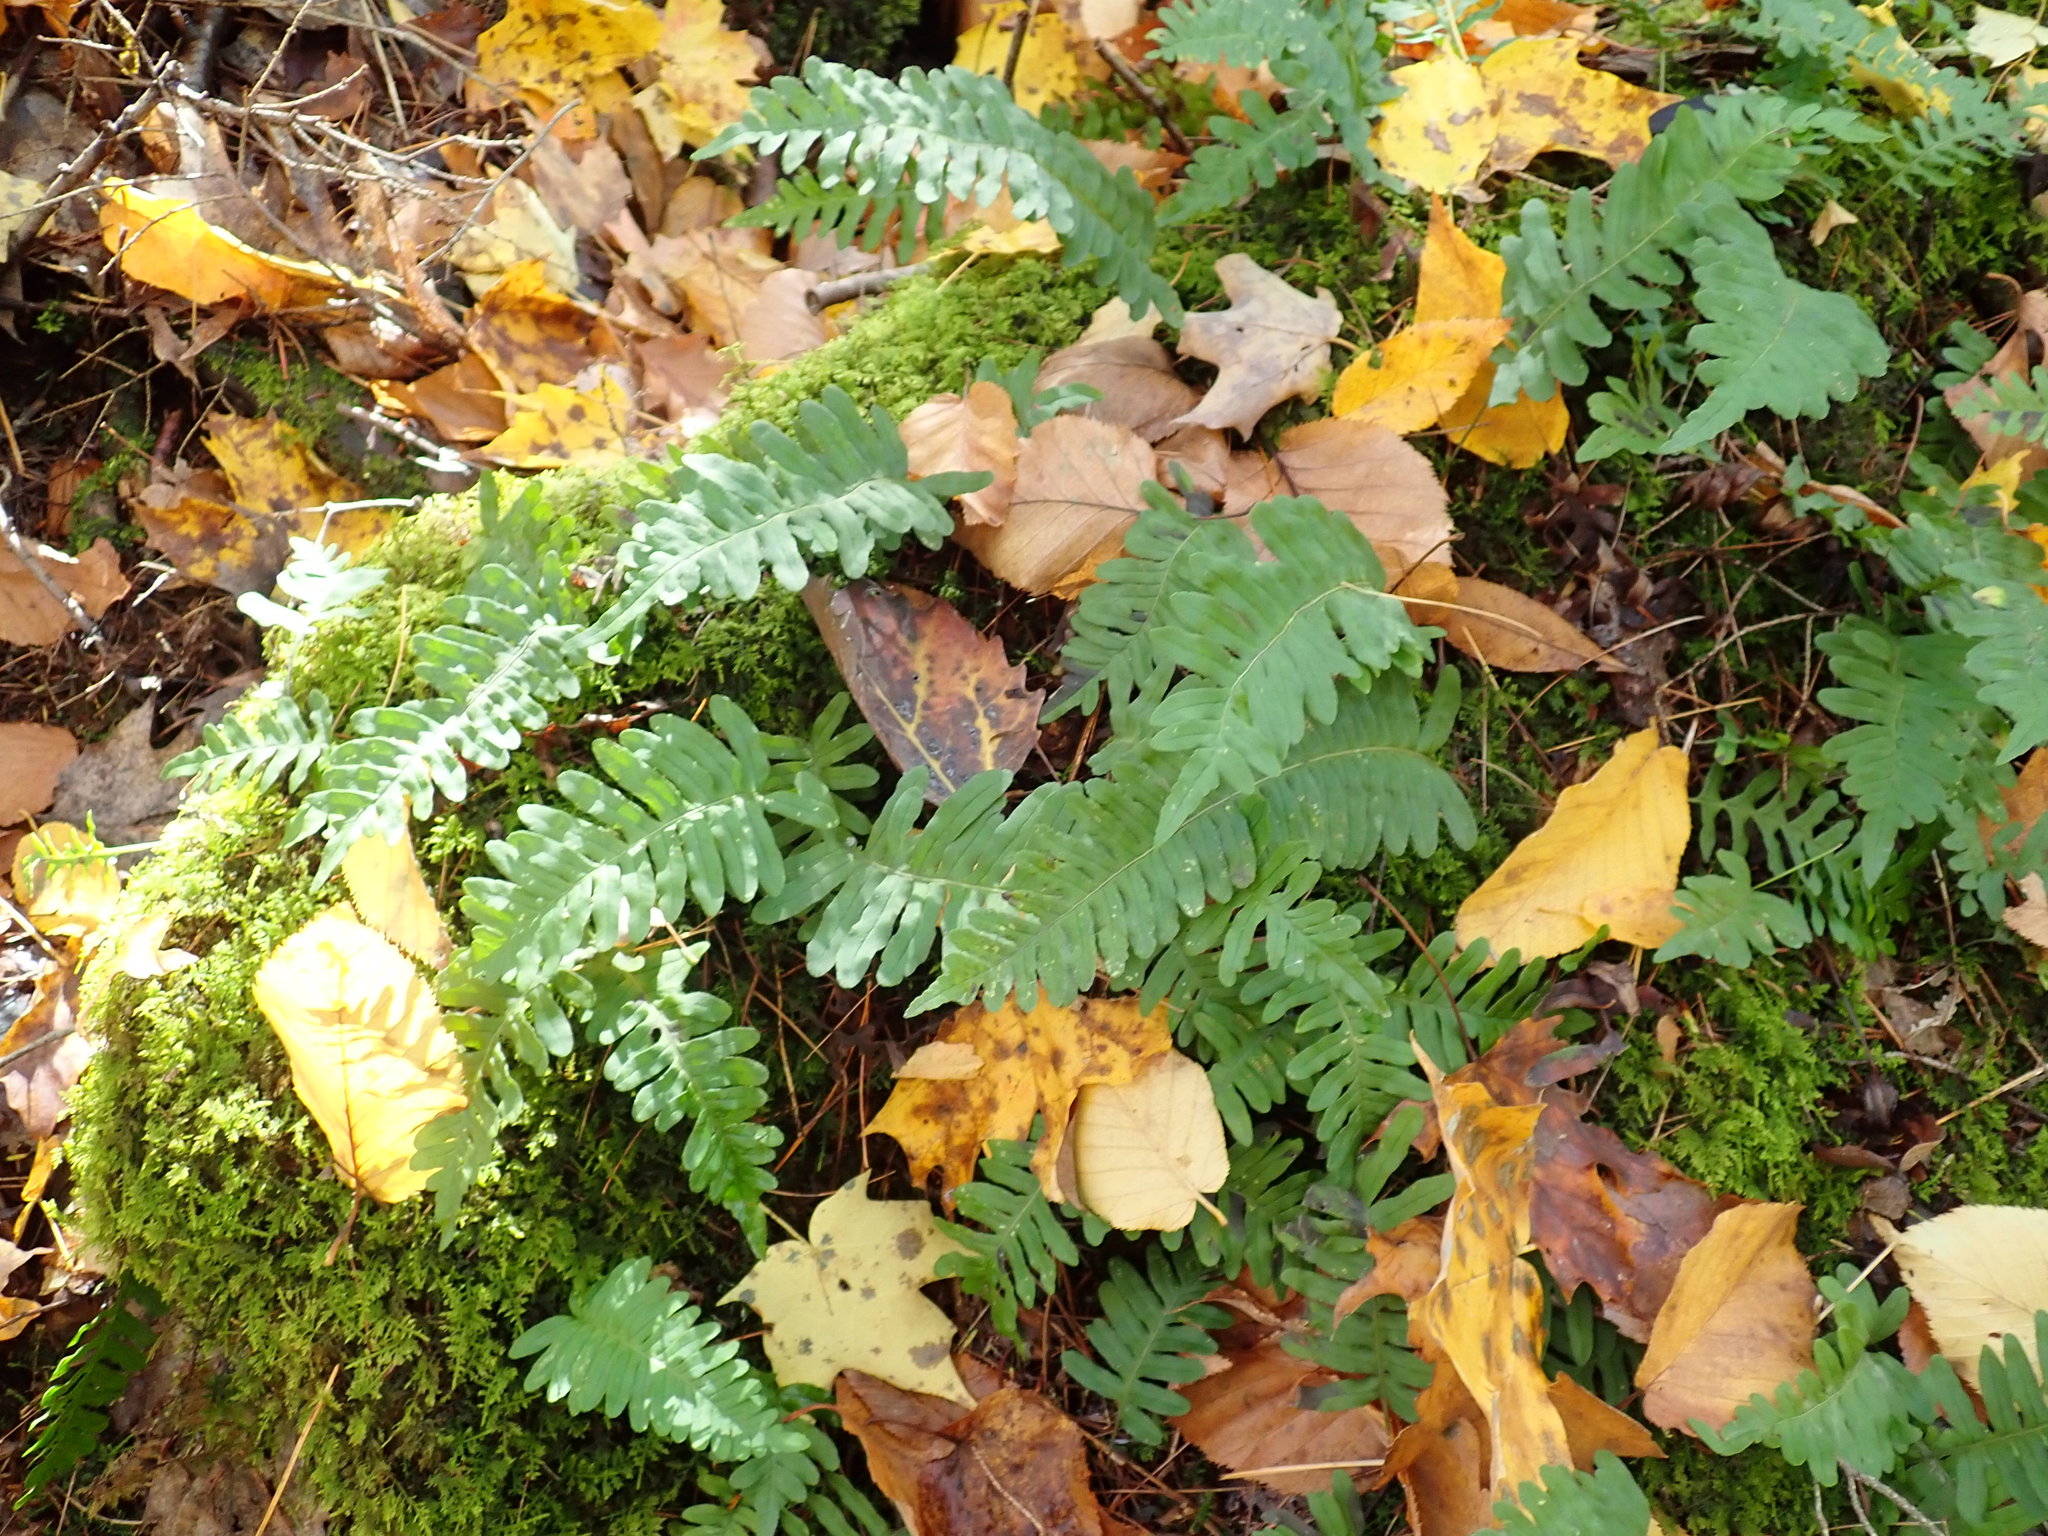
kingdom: Plantae
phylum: Tracheophyta
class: Polypodiopsida
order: Polypodiales
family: Polypodiaceae
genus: Polypodium
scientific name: Polypodium
